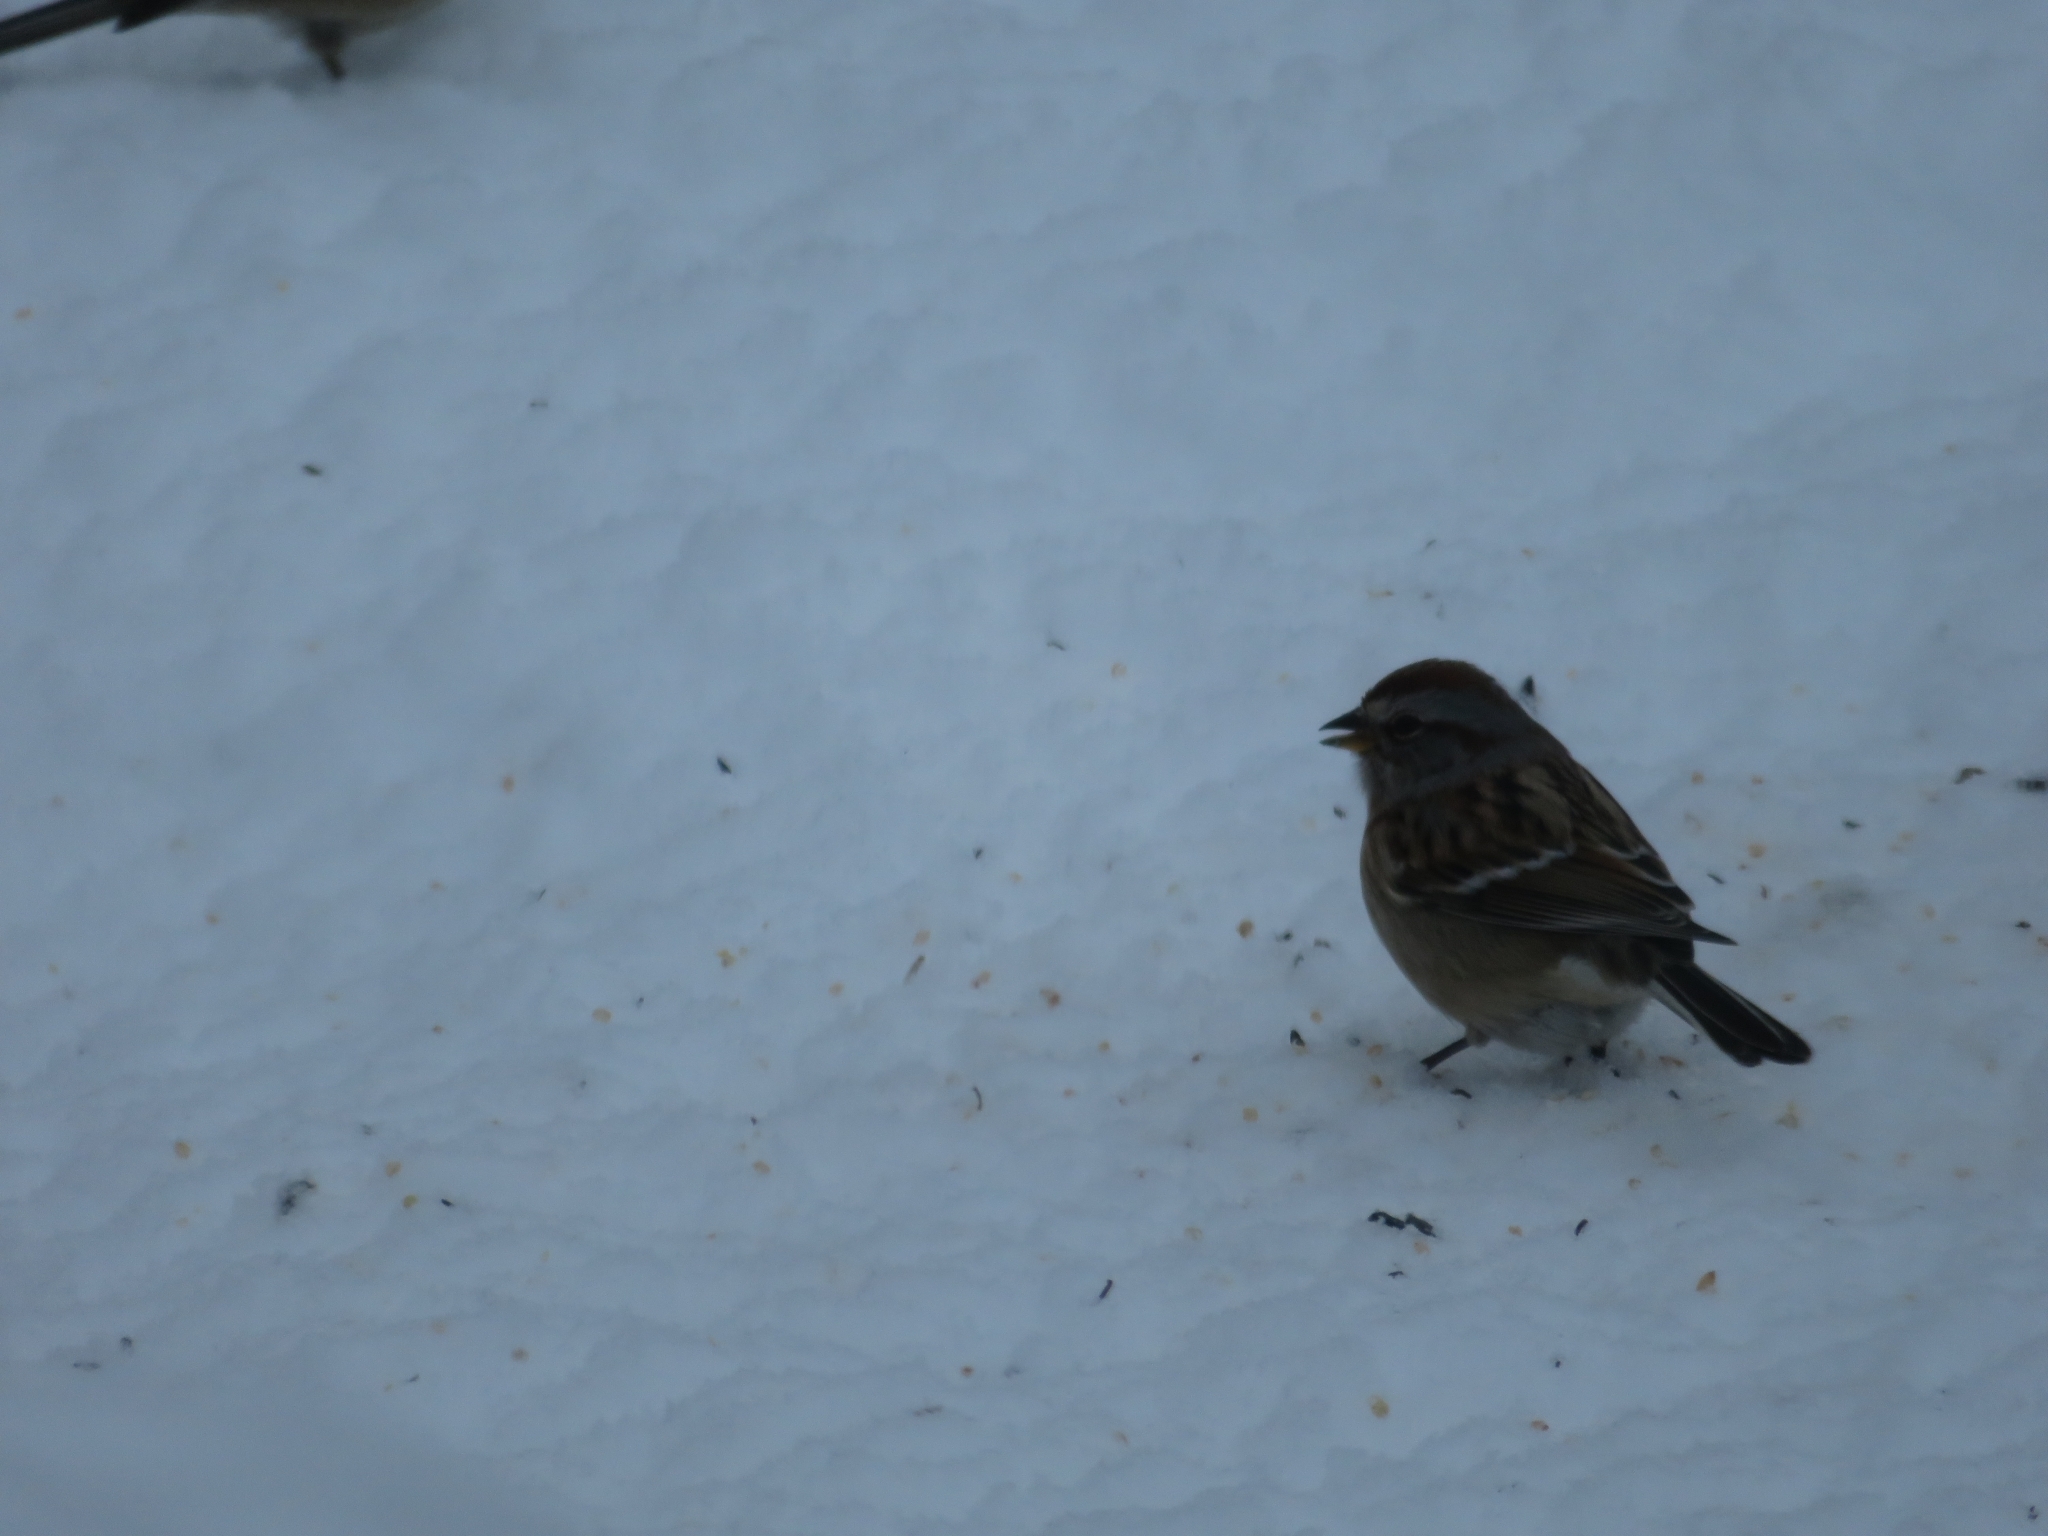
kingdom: Animalia
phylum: Chordata
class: Aves
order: Passeriformes
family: Passerellidae
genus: Spizelloides
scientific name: Spizelloides arborea
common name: American tree sparrow
